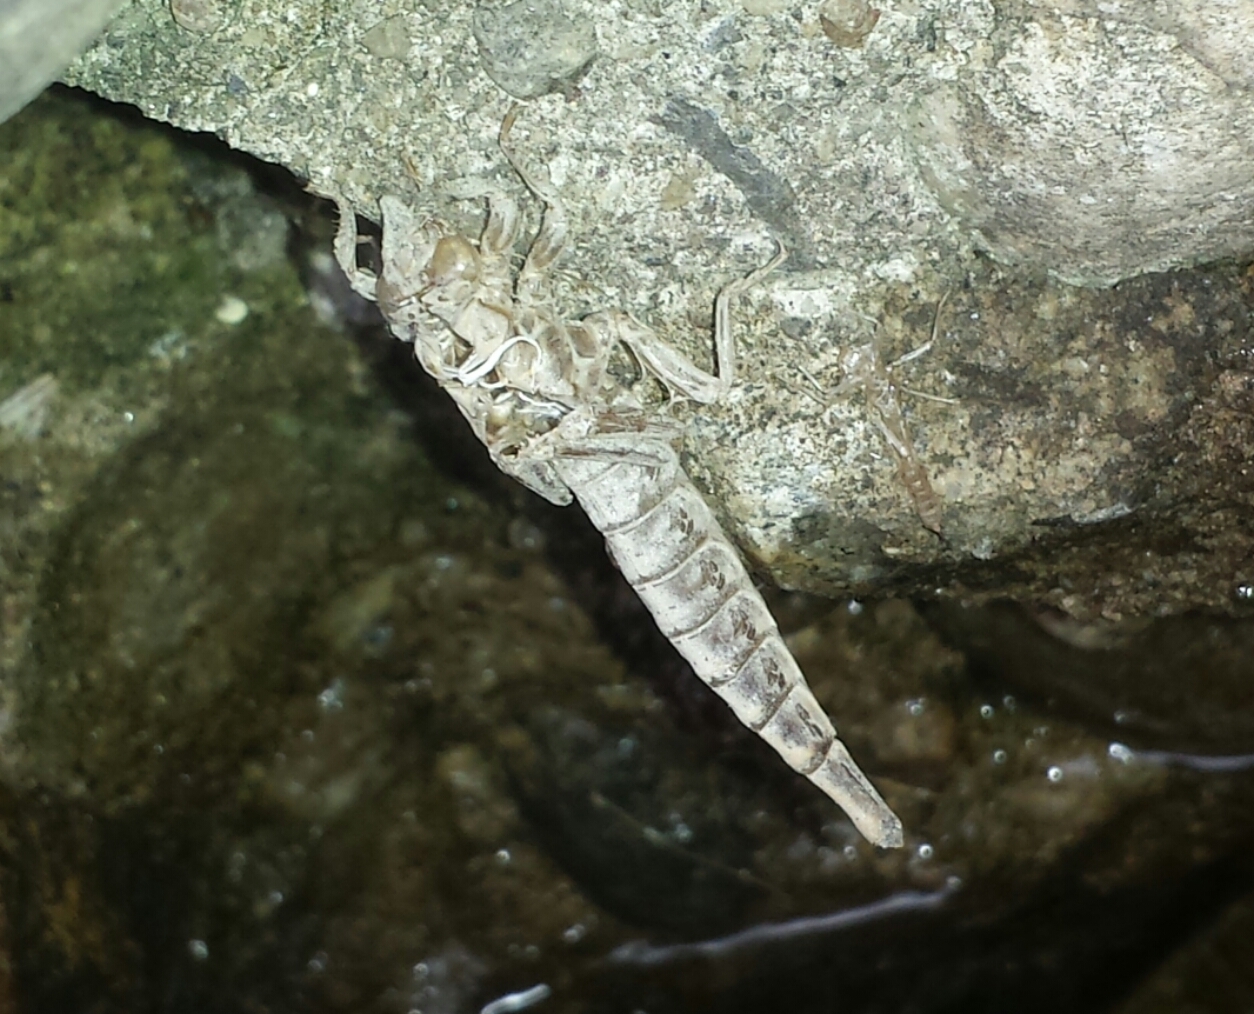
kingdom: Animalia
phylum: Arthropoda
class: Insecta
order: Odonata
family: Gomphidae
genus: Stylurus
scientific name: Stylurus spiniceps
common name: Arrow clubtail
